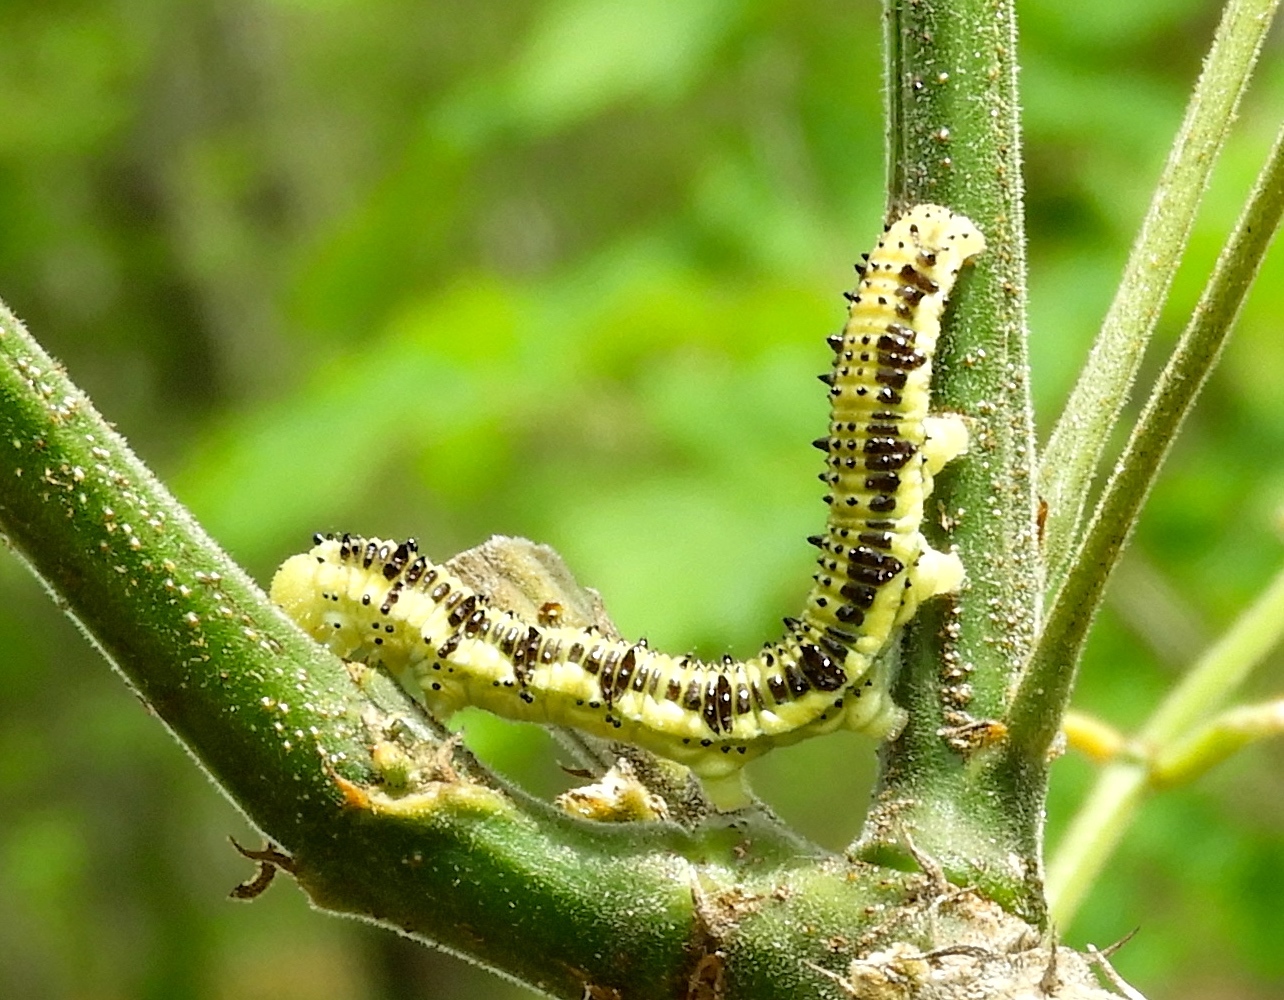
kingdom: Animalia
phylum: Arthropoda
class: Insecta
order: Lepidoptera
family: Pieridae
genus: Phoebis
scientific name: Phoebis philea
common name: Orange-barred giant sulphur
